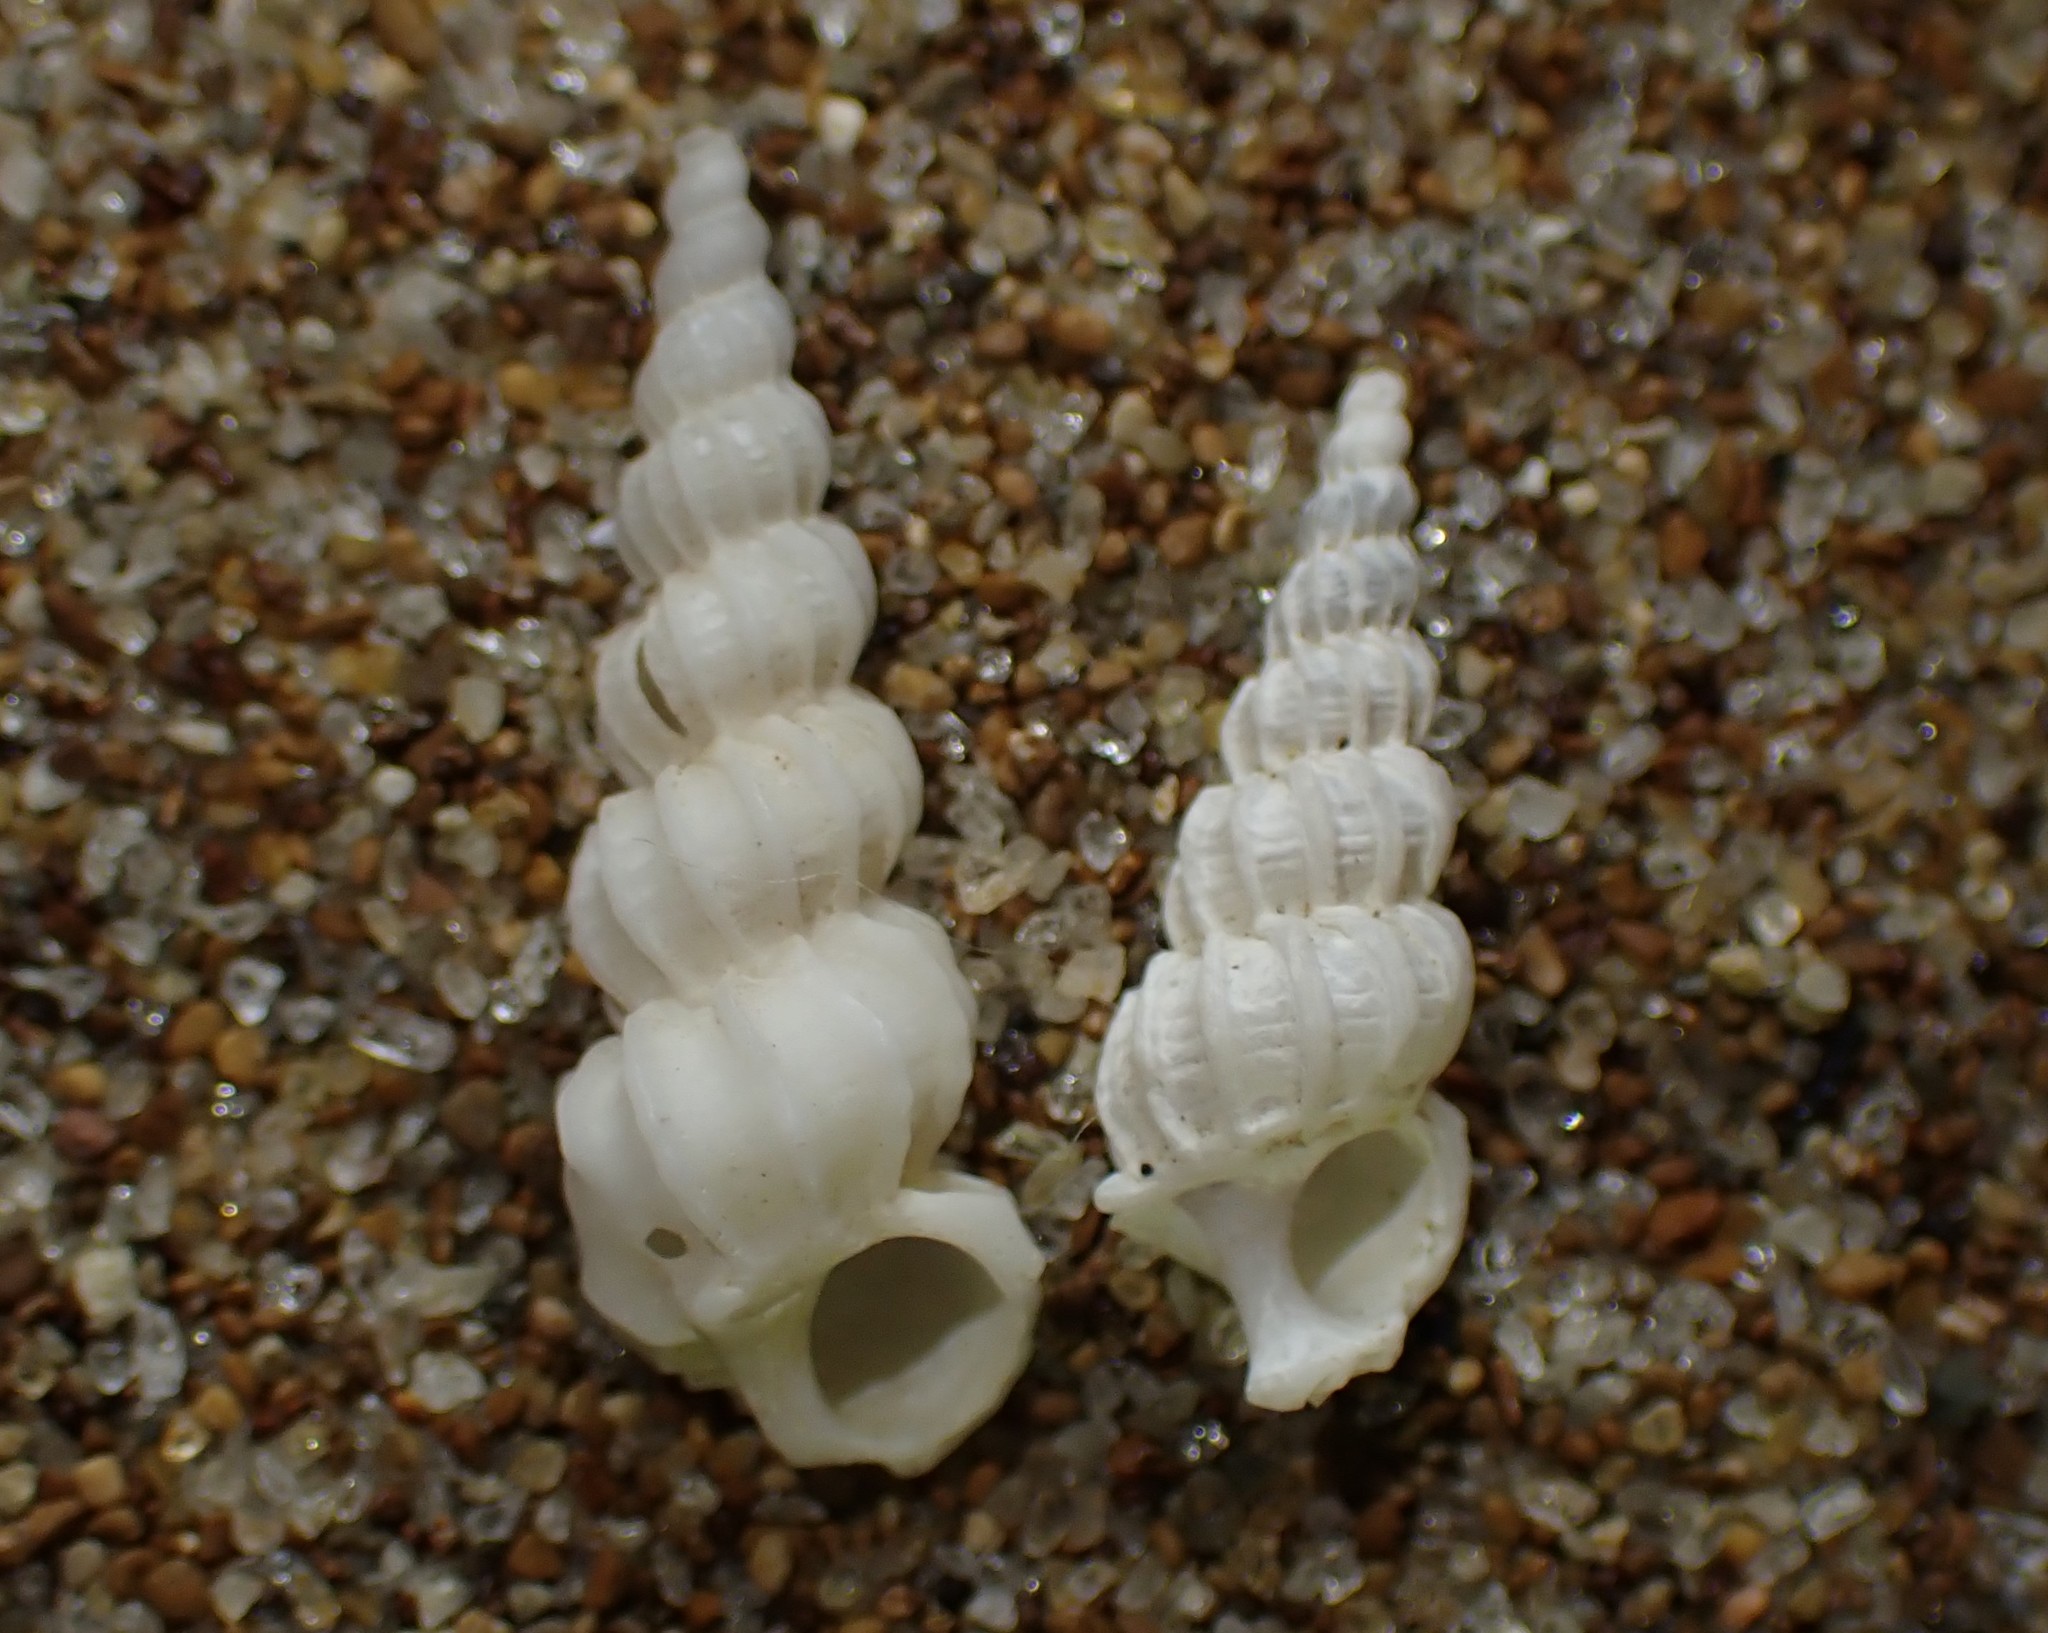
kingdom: Animalia
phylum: Mollusca
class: Gastropoda
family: Epitoniidae
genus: Cirsotrema
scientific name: Cirsotrema zelebori
